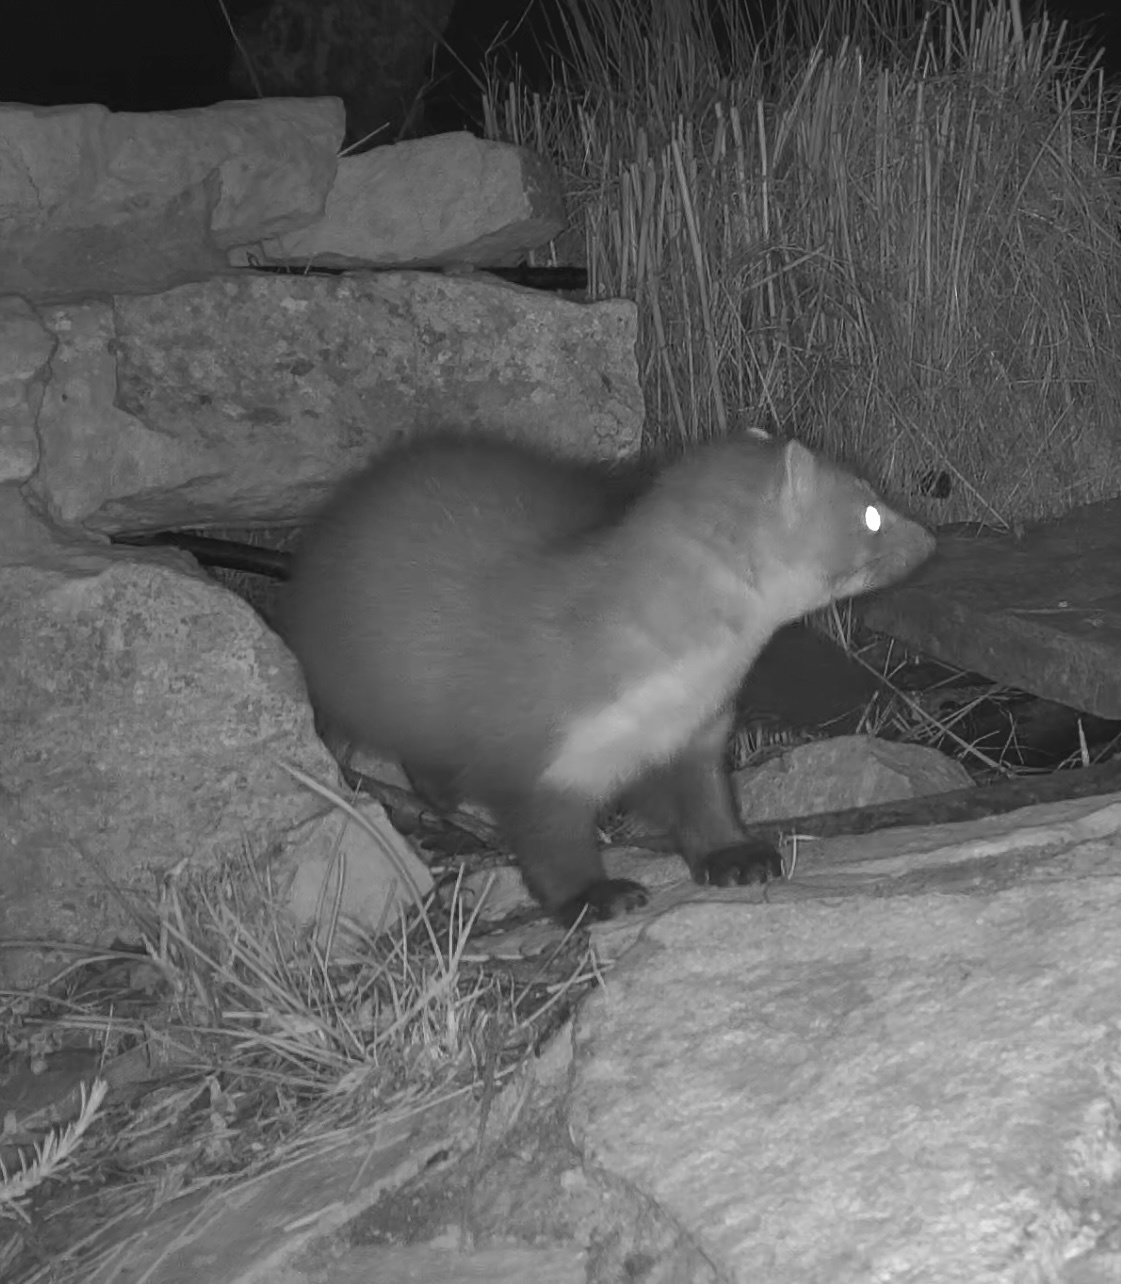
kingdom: Animalia
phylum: Chordata
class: Mammalia
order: Carnivora
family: Mustelidae
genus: Martes
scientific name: Martes foina
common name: Beech marten
